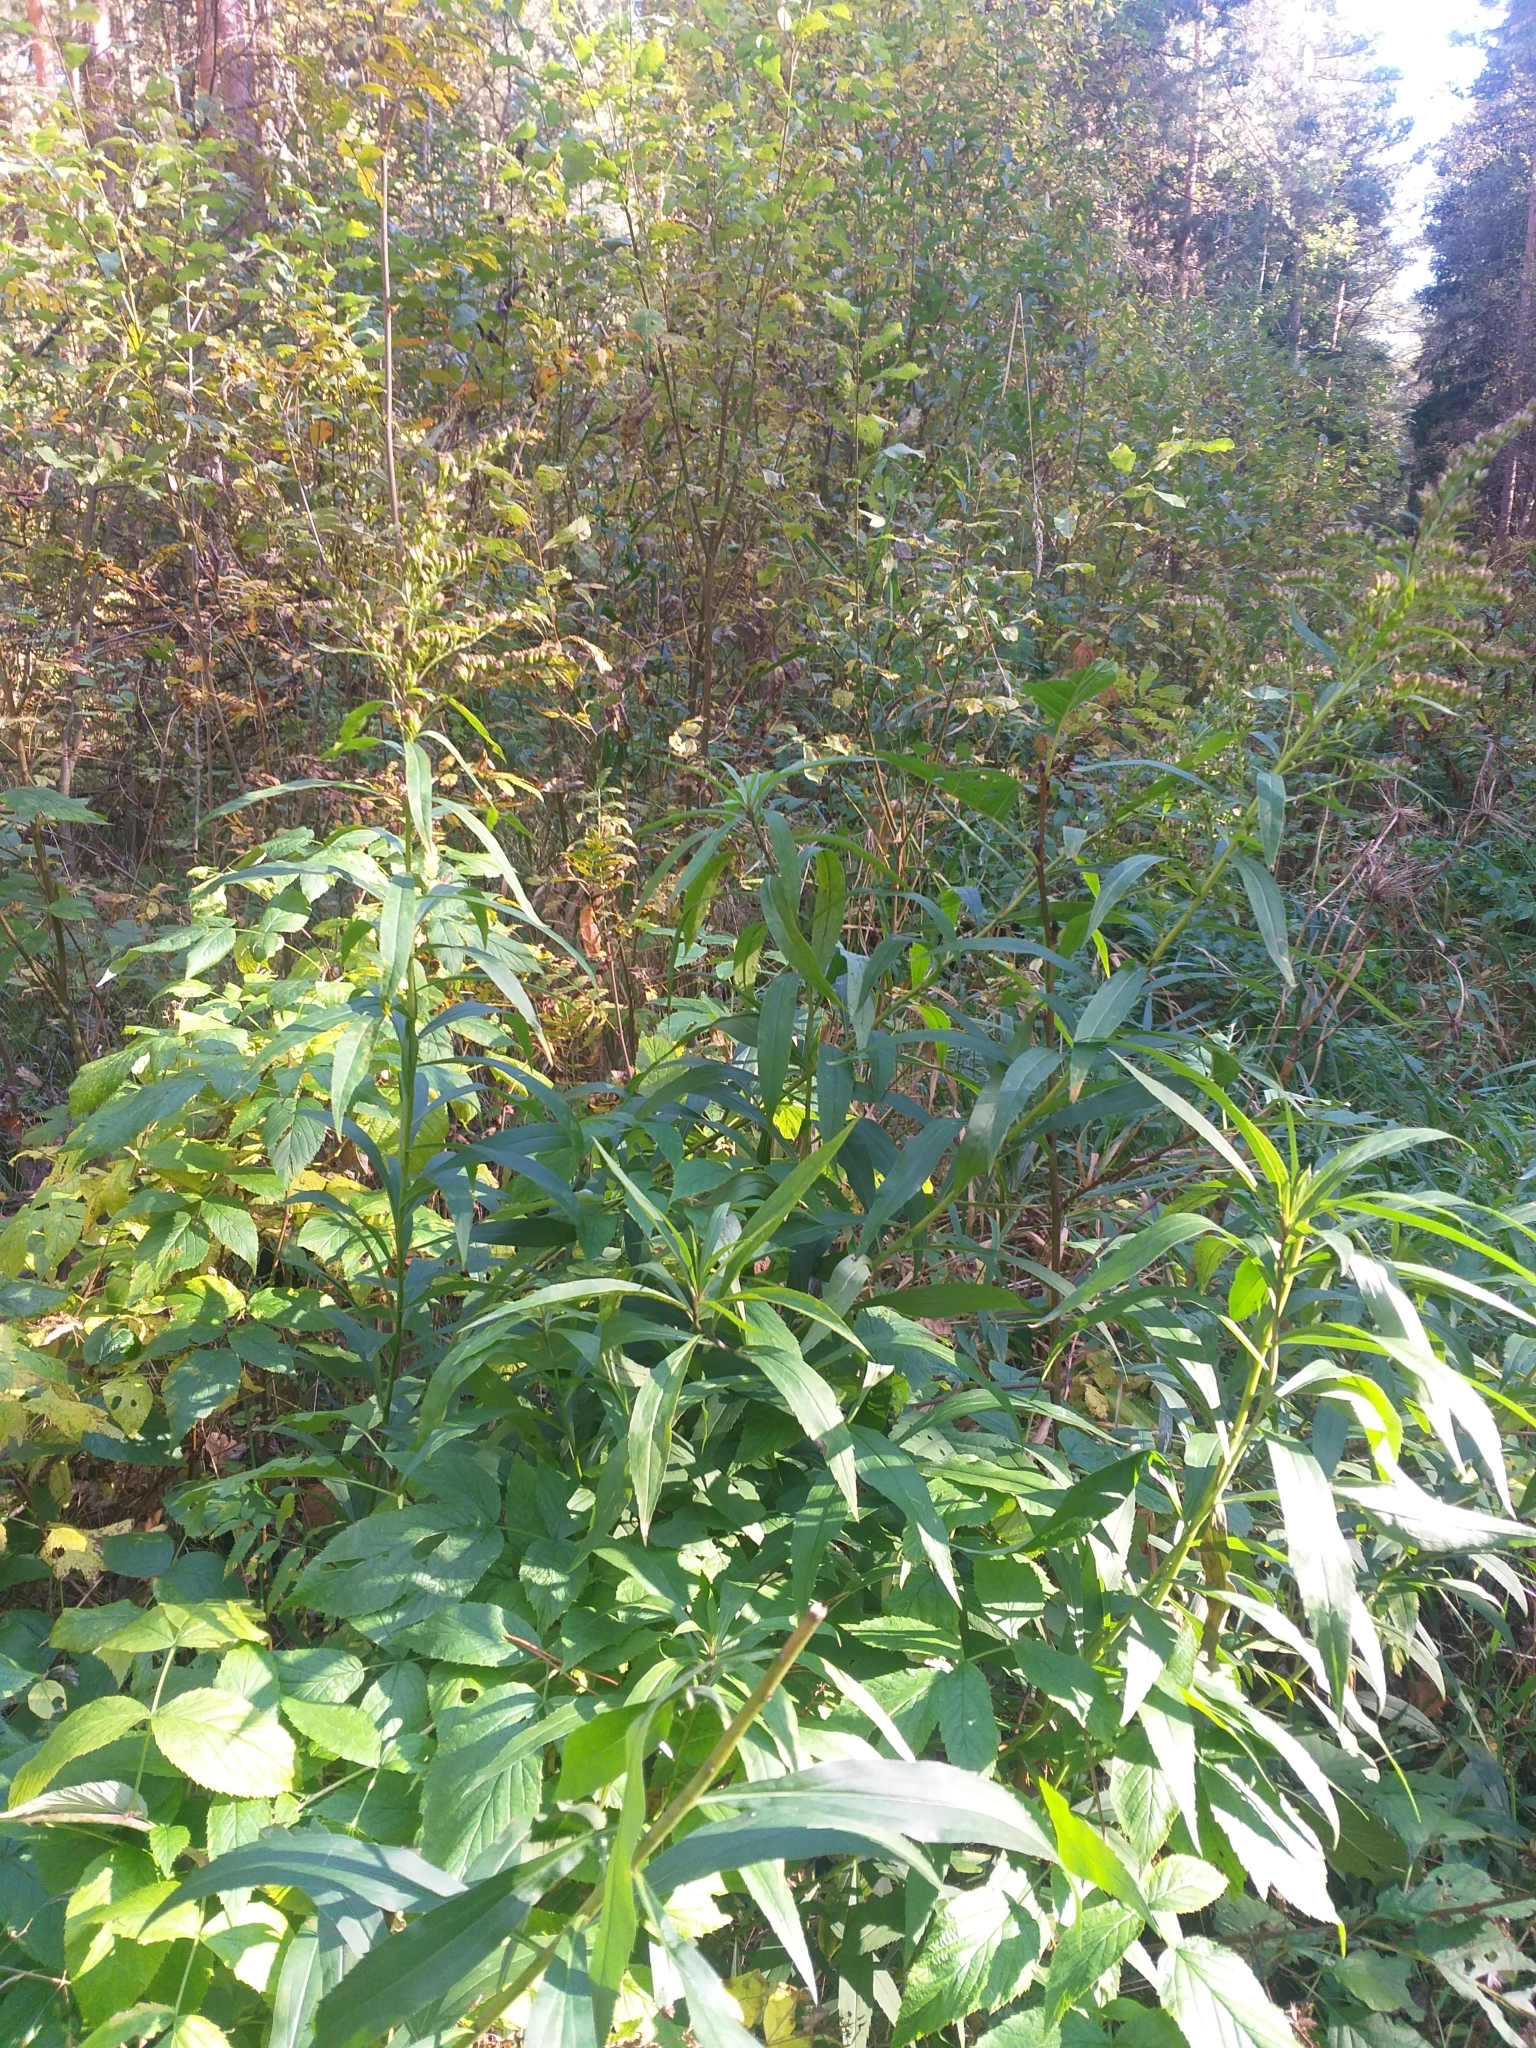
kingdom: Plantae
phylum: Tracheophyta
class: Magnoliopsida
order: Asterales
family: Asteraceae
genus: Solidago
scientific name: Solidago gigantea
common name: Giant goldenrod
